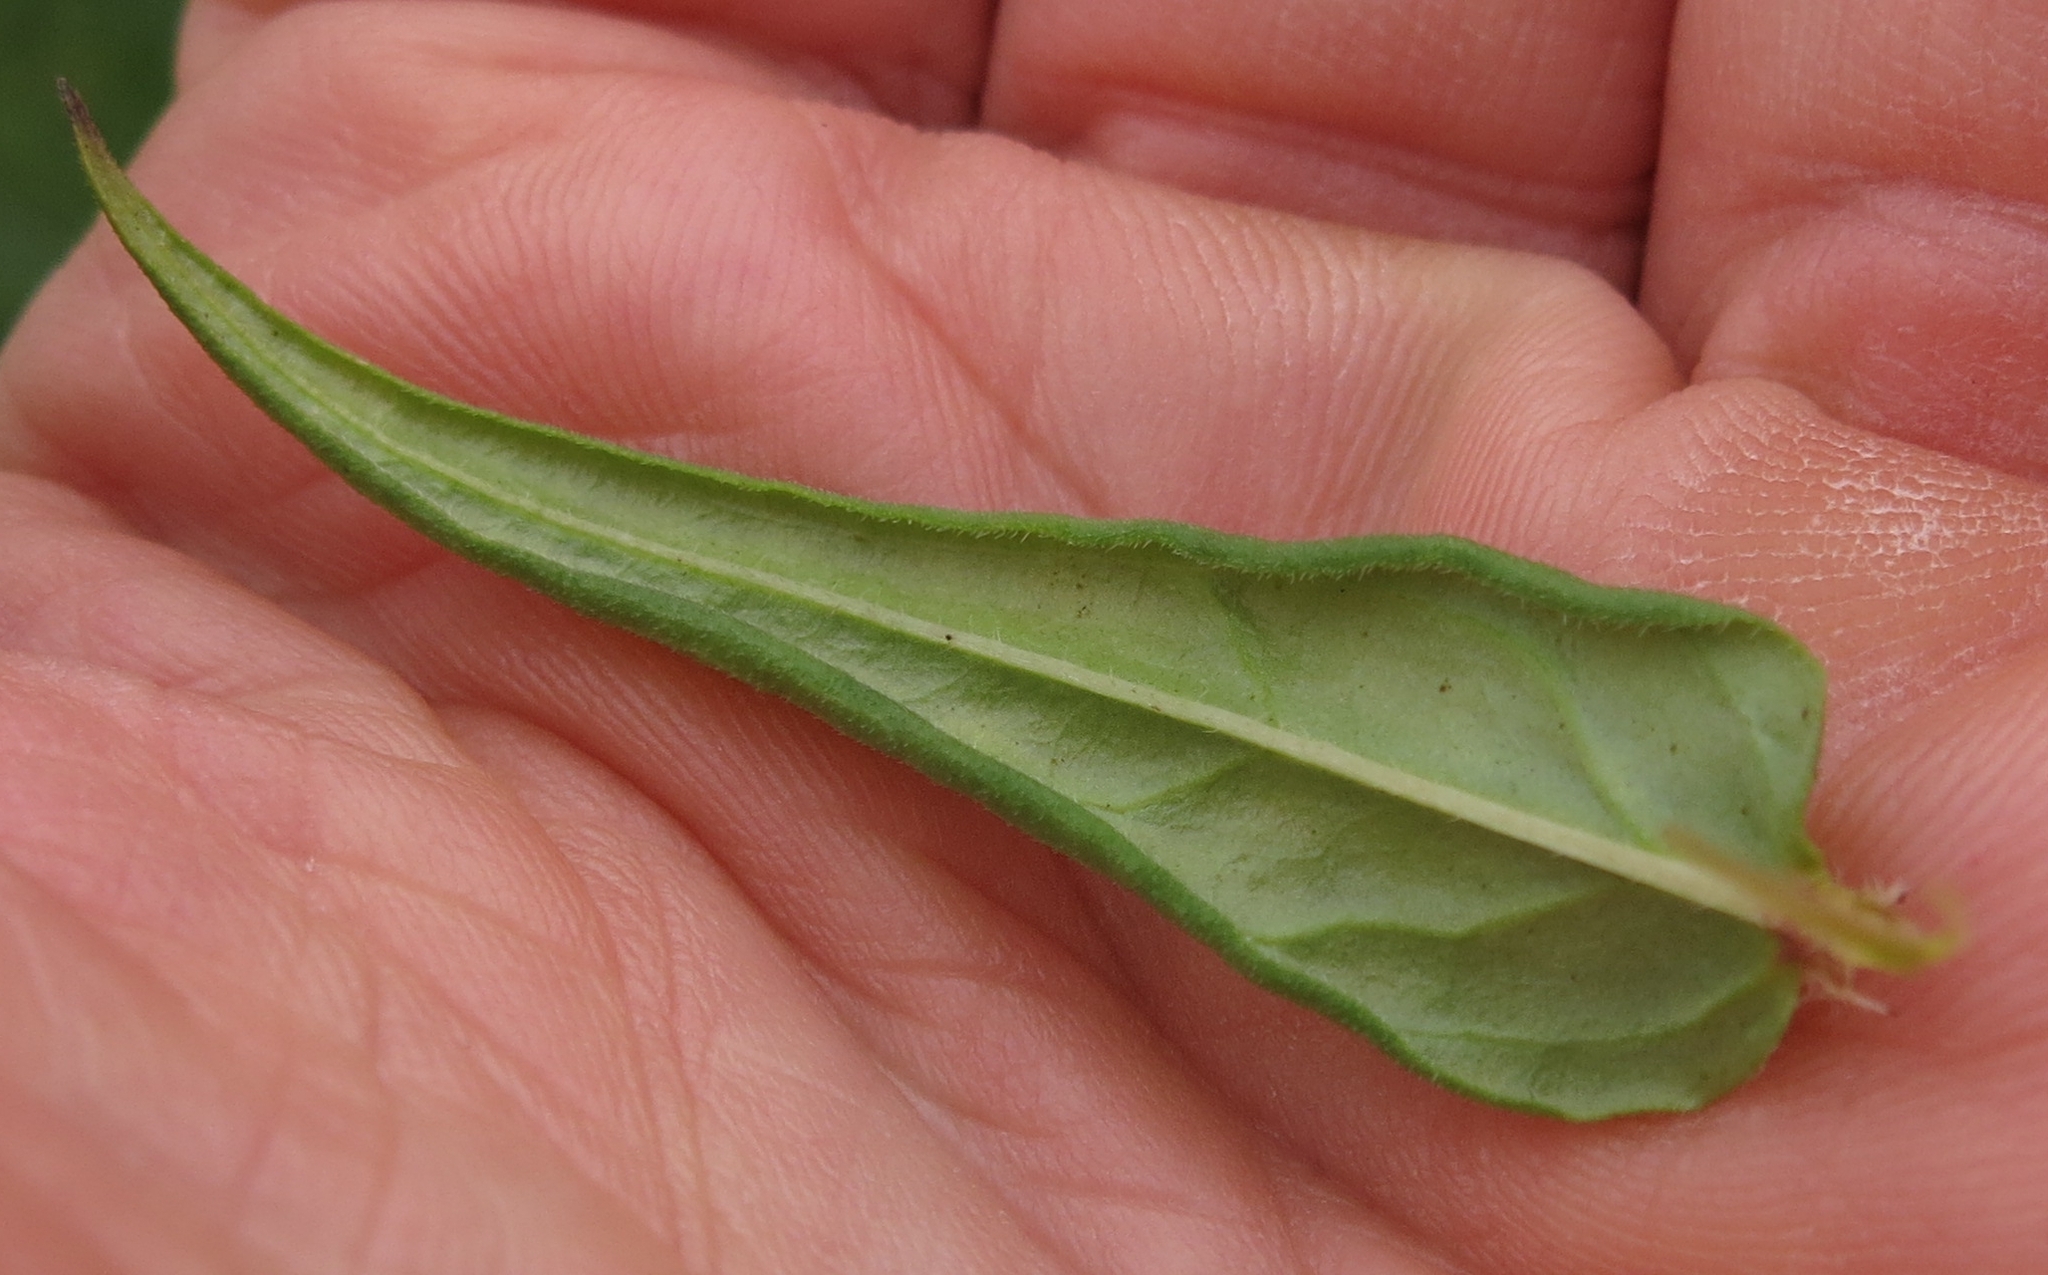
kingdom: Plantae
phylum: Tracheophyta
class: Magnoliopsida
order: Gentianales
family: Rubiaceae
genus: Conostomium
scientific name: Conostomium natalense
